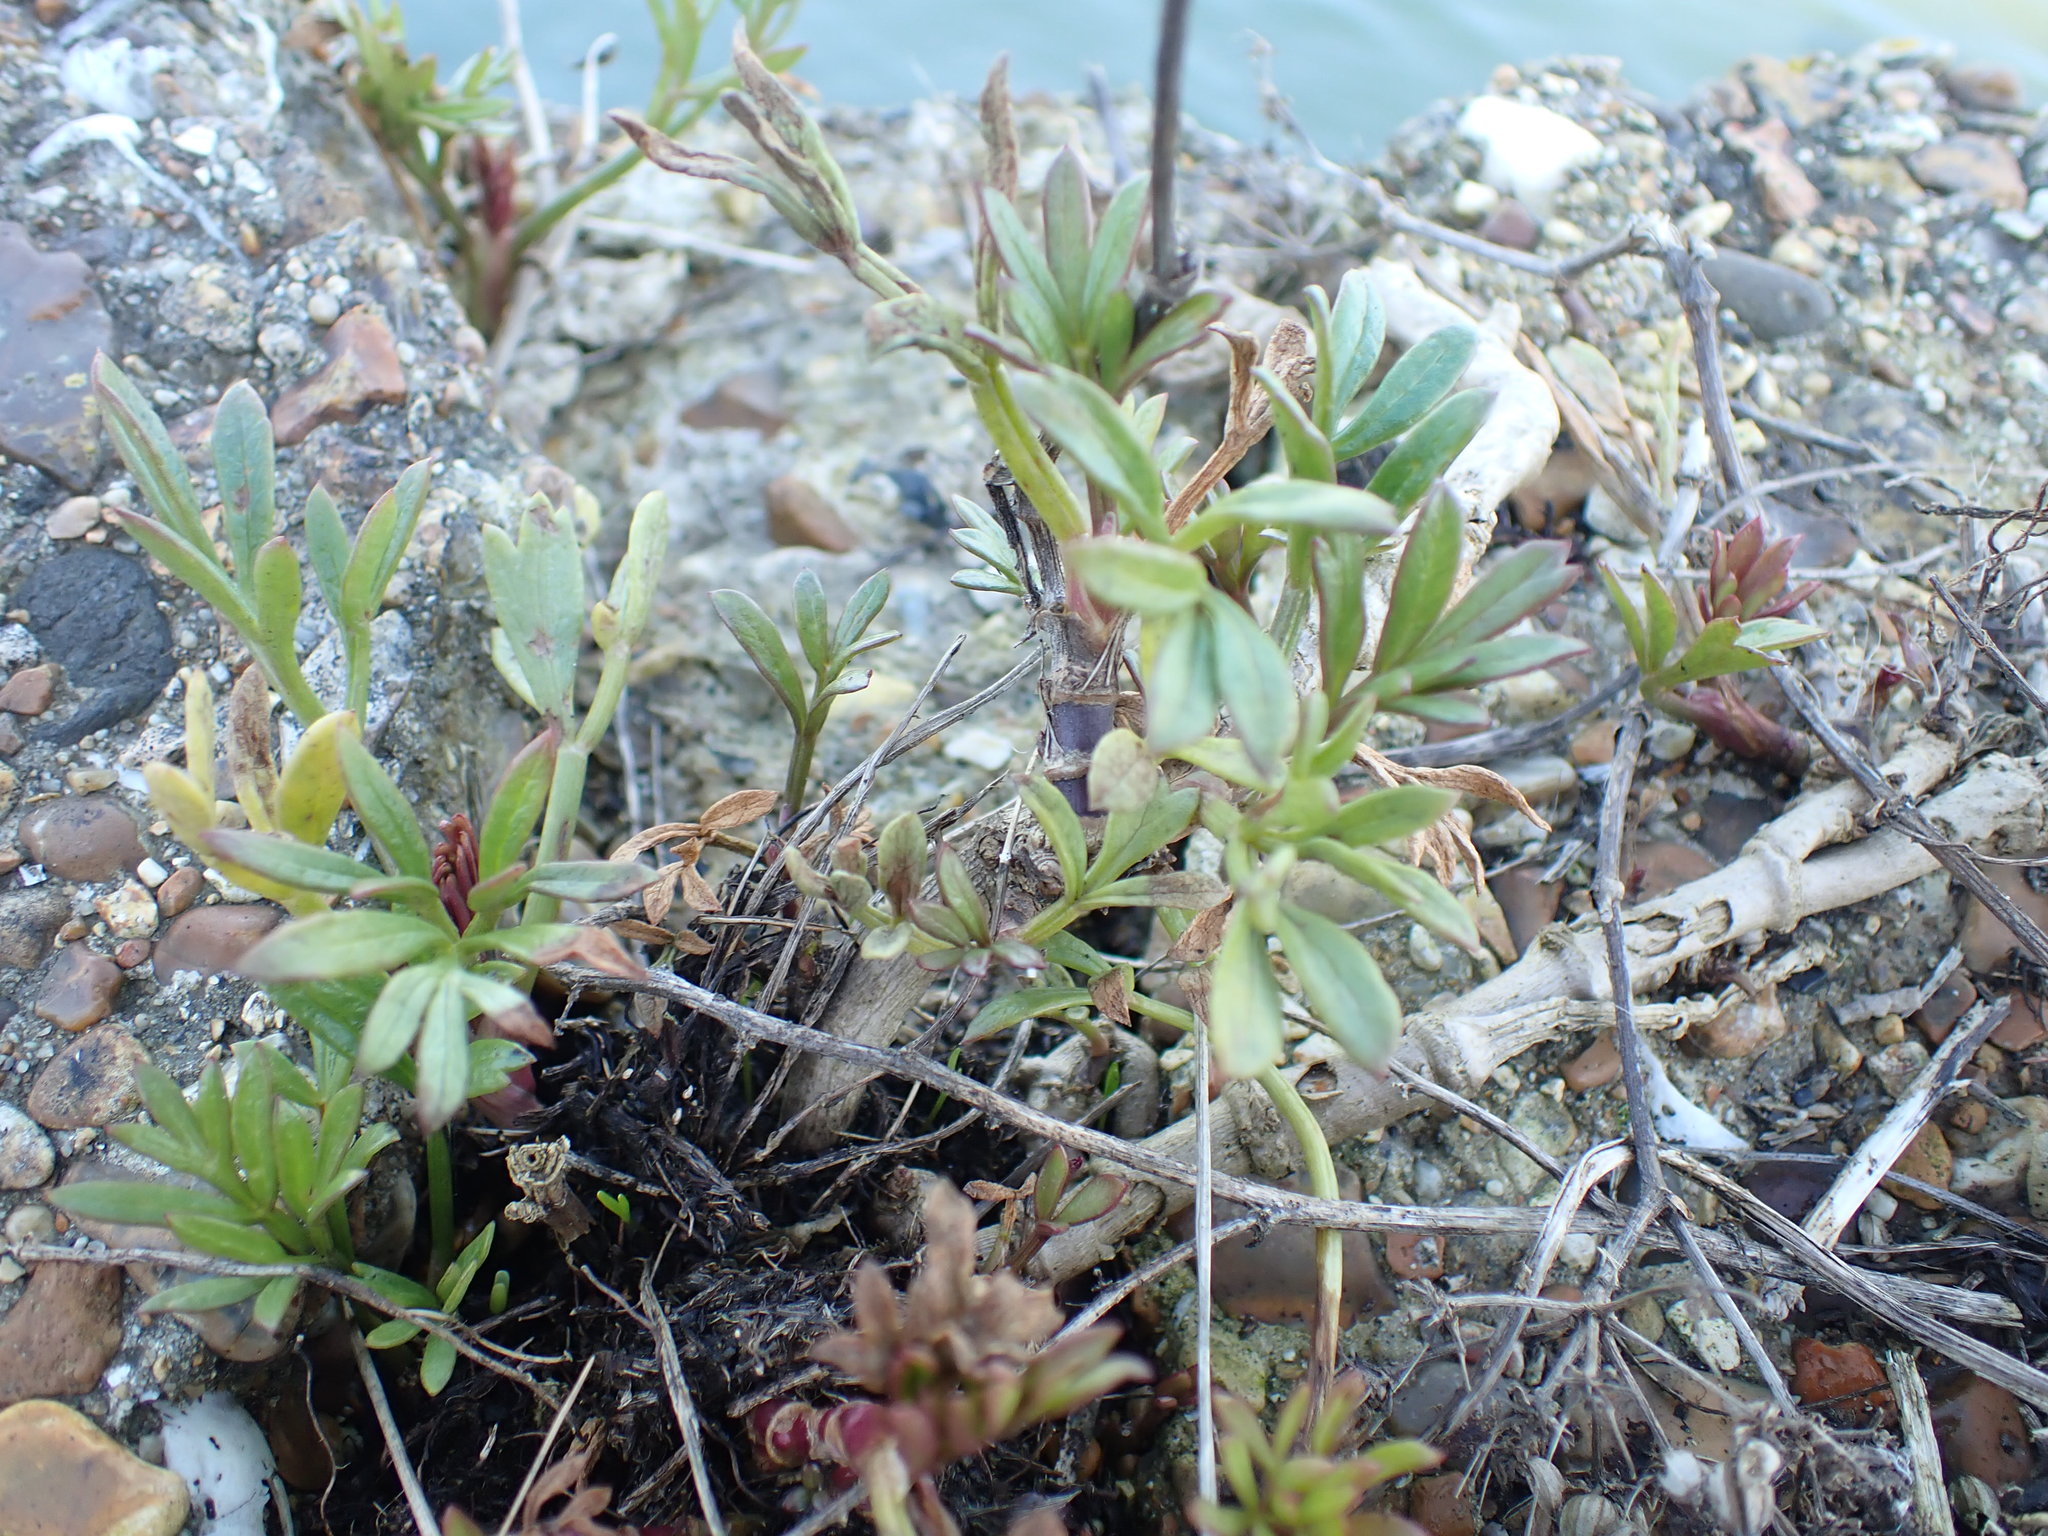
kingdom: Plantae
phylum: Tracheophyta
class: Magnoliopsida
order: Apiales
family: Apiaceae
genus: Crithmum
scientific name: Crithmum maritimum
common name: Rock samphire
